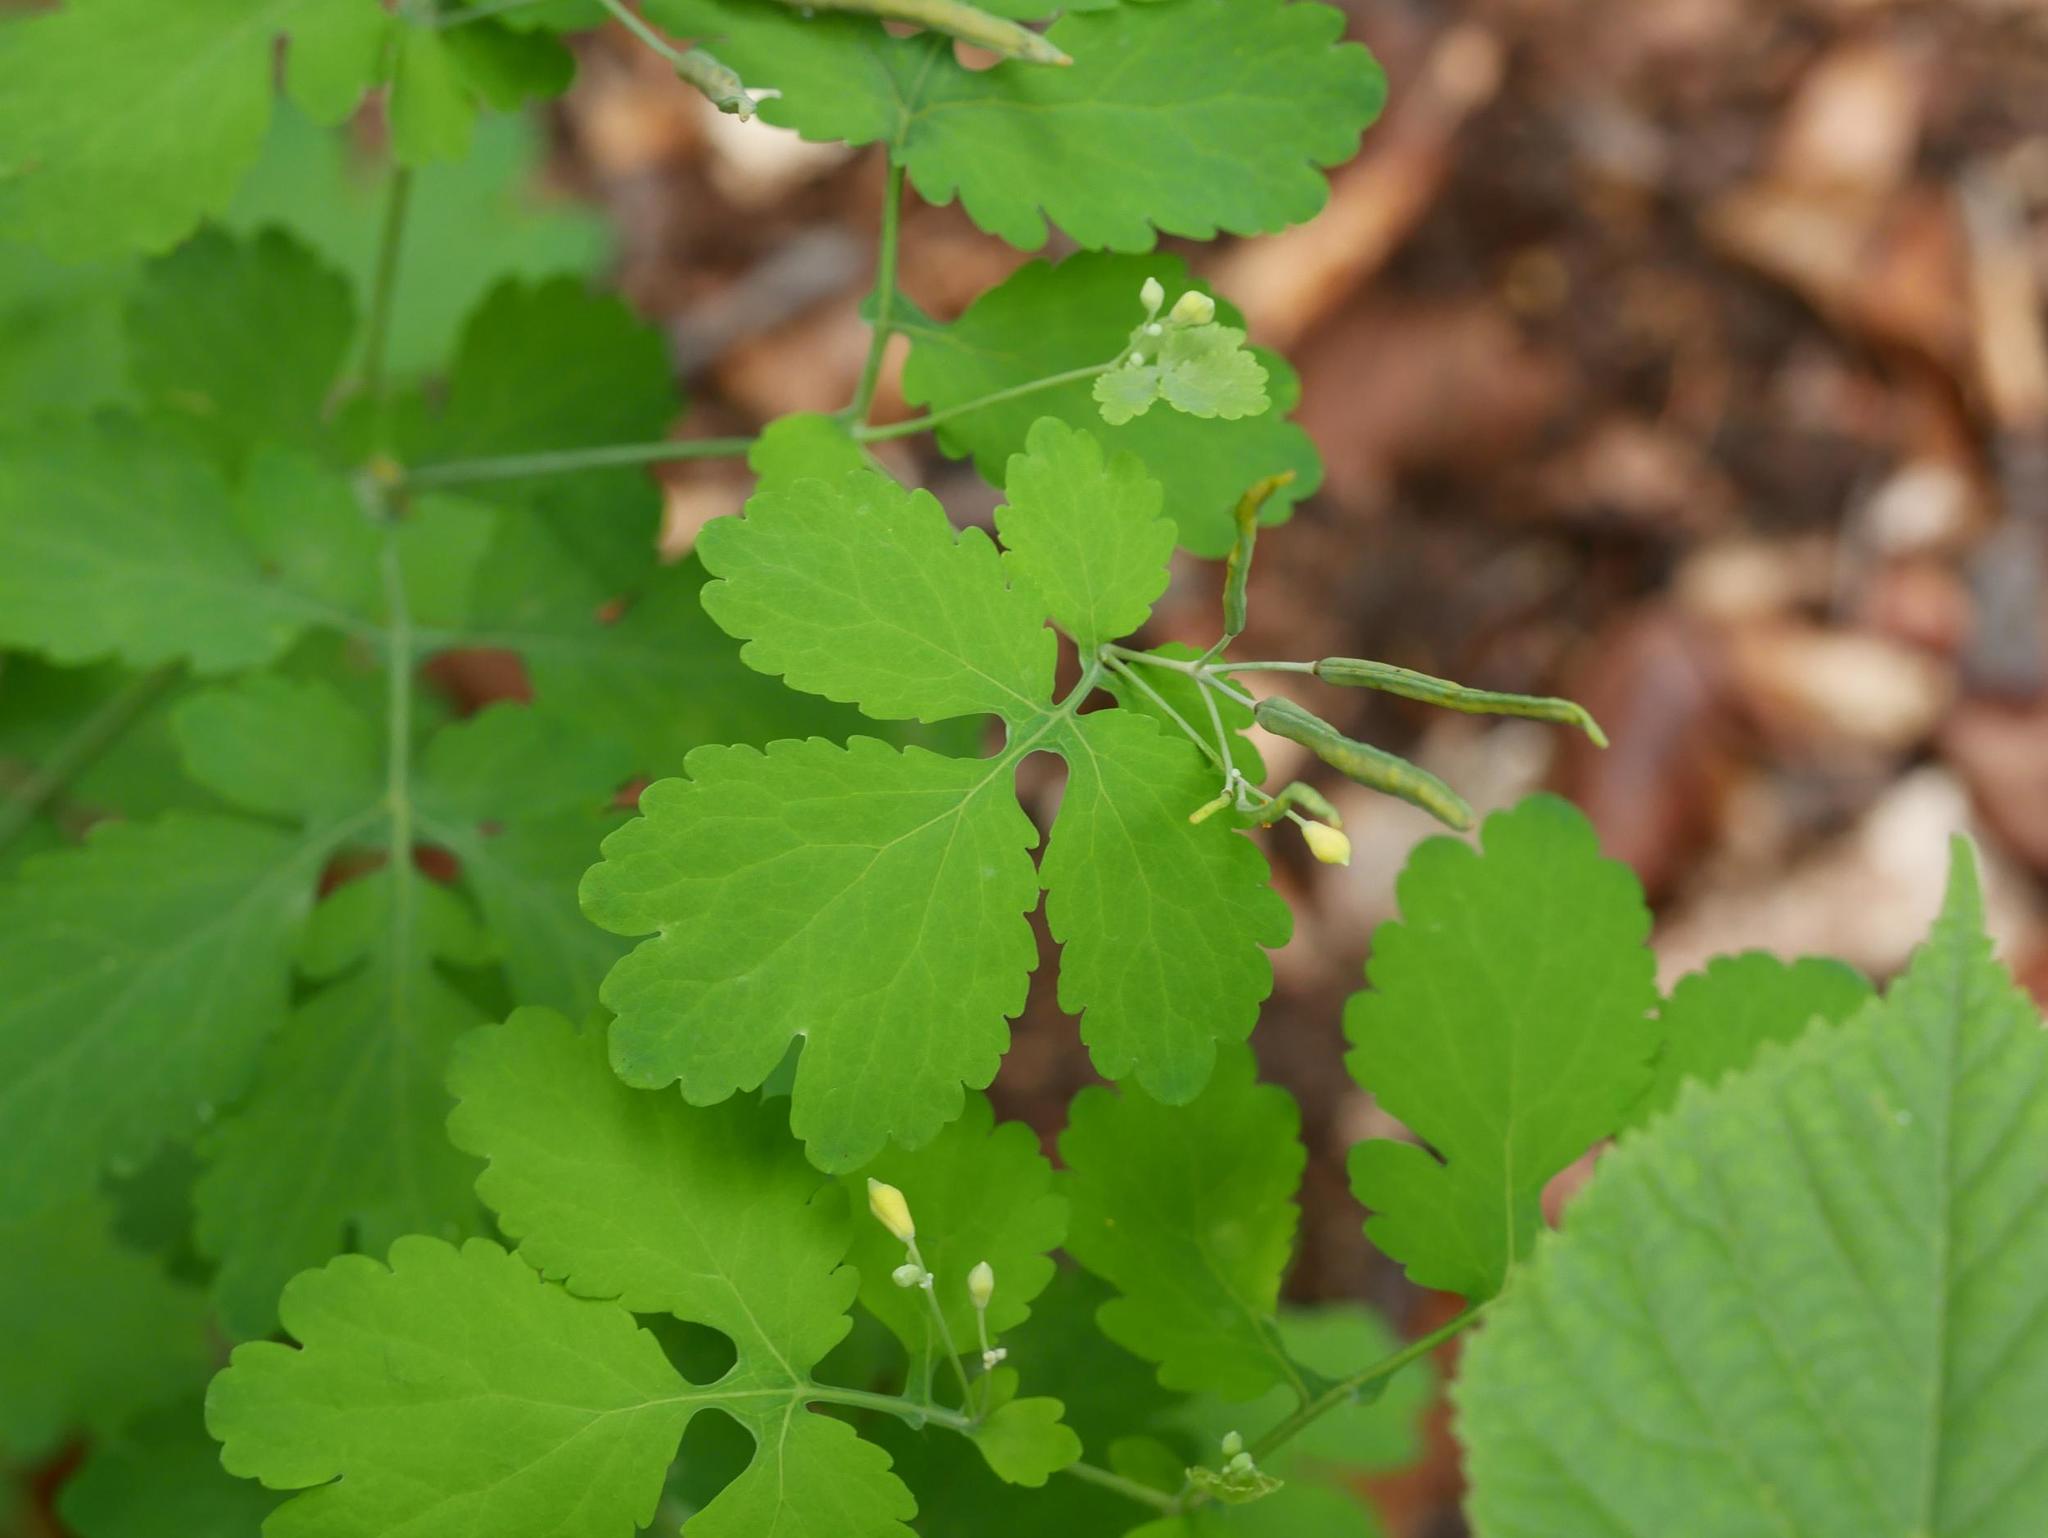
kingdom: Plantae
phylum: Tracheophyta
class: Magnoliopsida
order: Ranunculales
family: Papaveraceae
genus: Chelidonium
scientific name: Chelidonium majus
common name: Greater celandine
